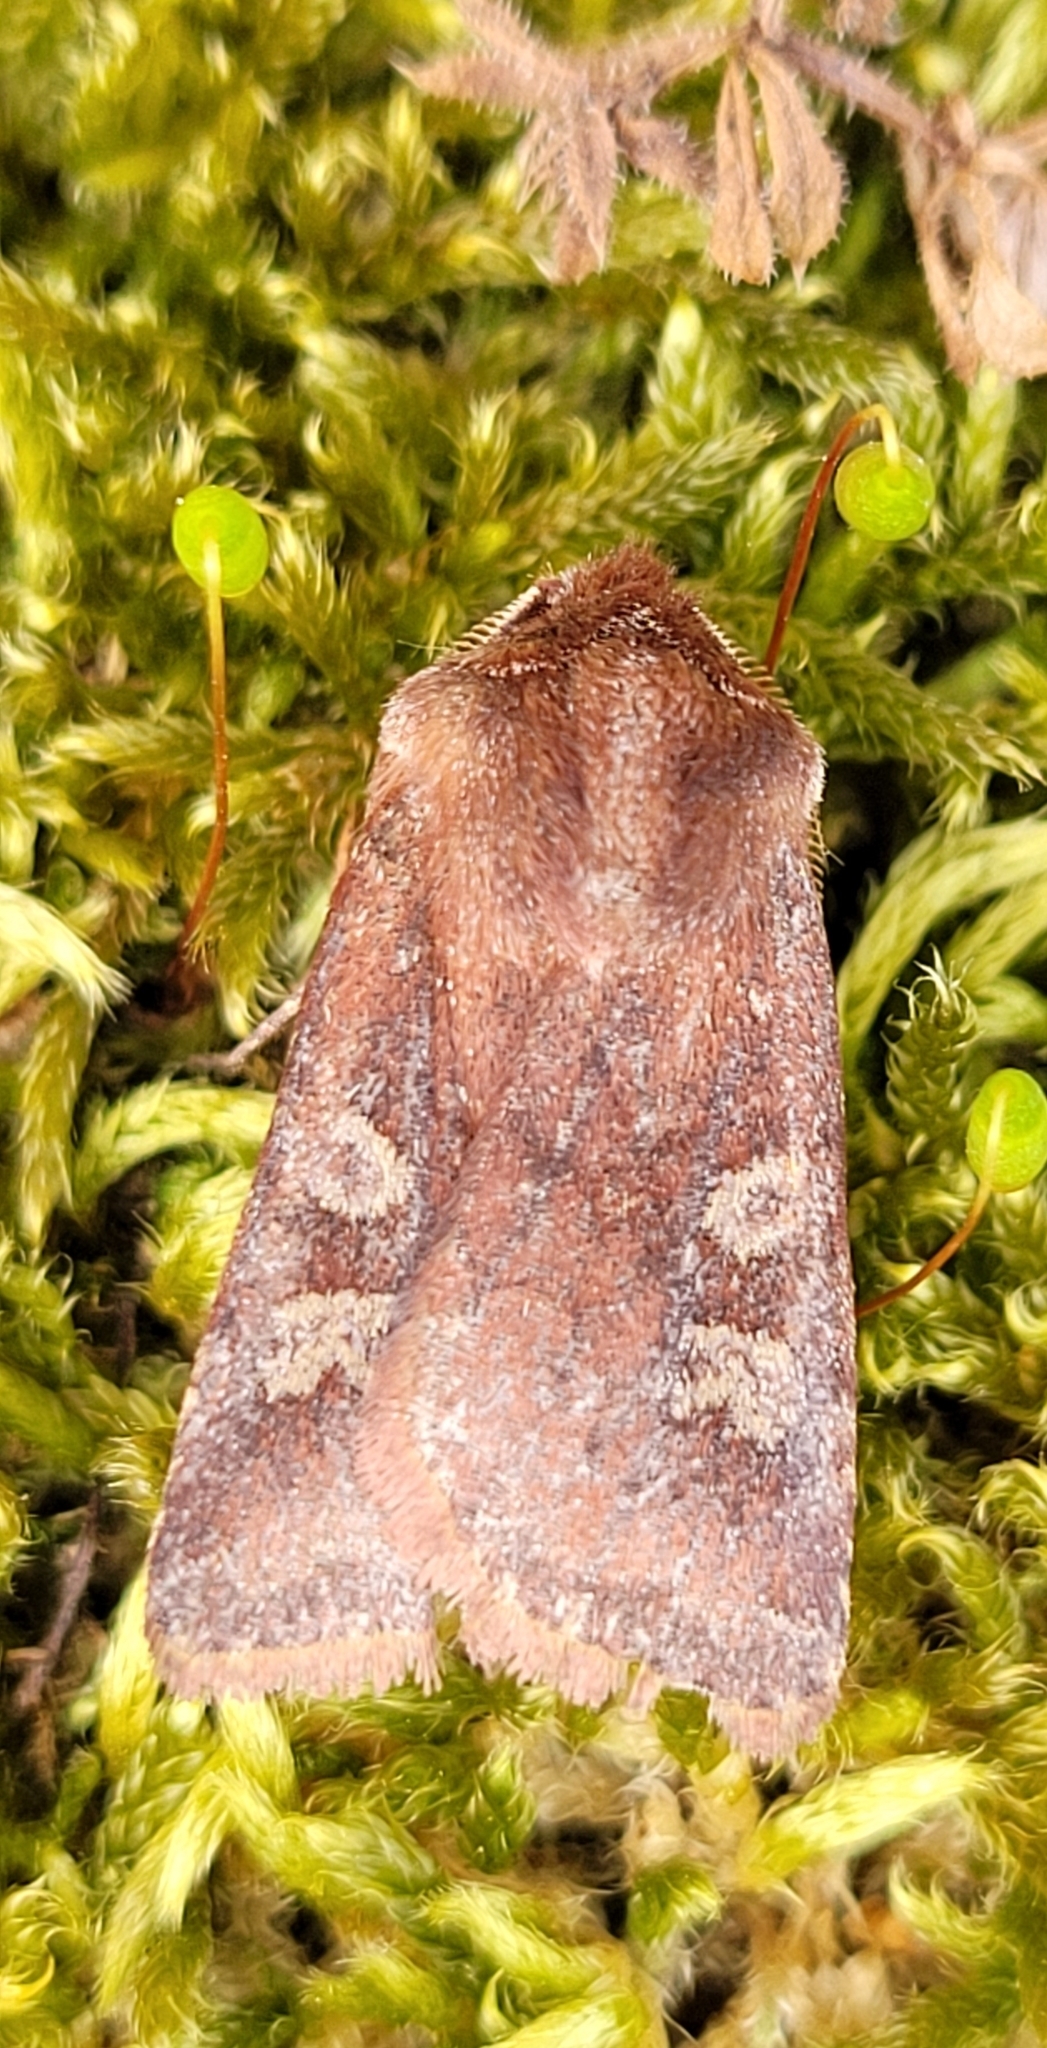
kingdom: Animalia
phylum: Arthropoda
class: Insecta
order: Lepidoptera
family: Noctuidae
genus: Cerastis
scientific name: Cerastis leucographa
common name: White-marked
